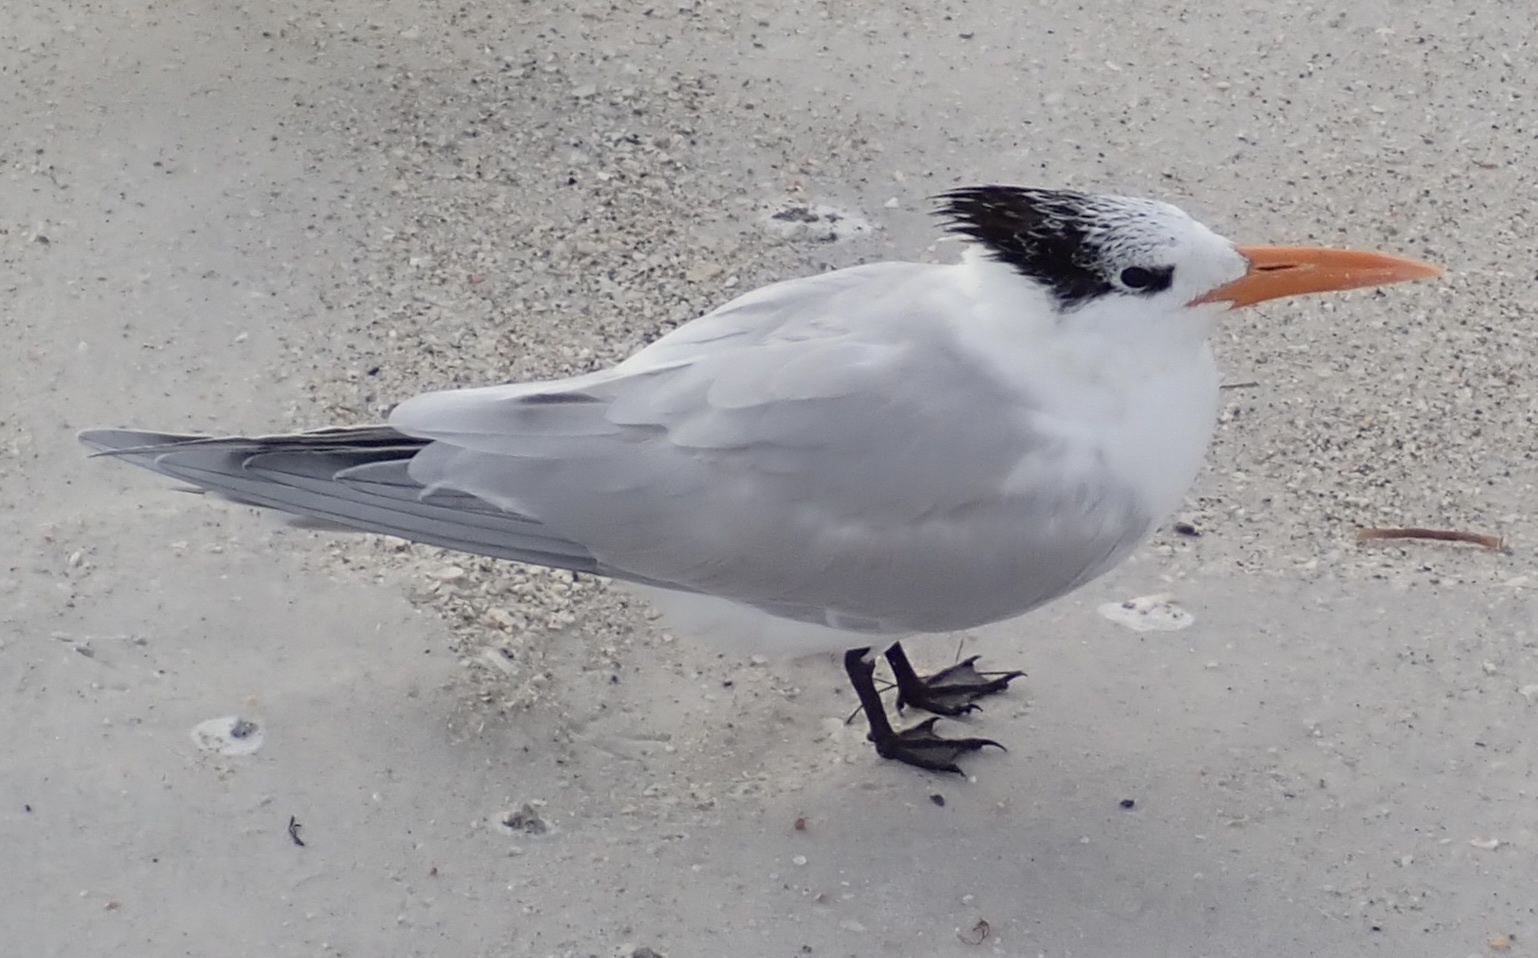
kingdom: Animalia
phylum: Chordata
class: Aves
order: Charadriiformes
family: Laridae
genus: Thalasseus
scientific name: Thalasseus maximus
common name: Royal tern
